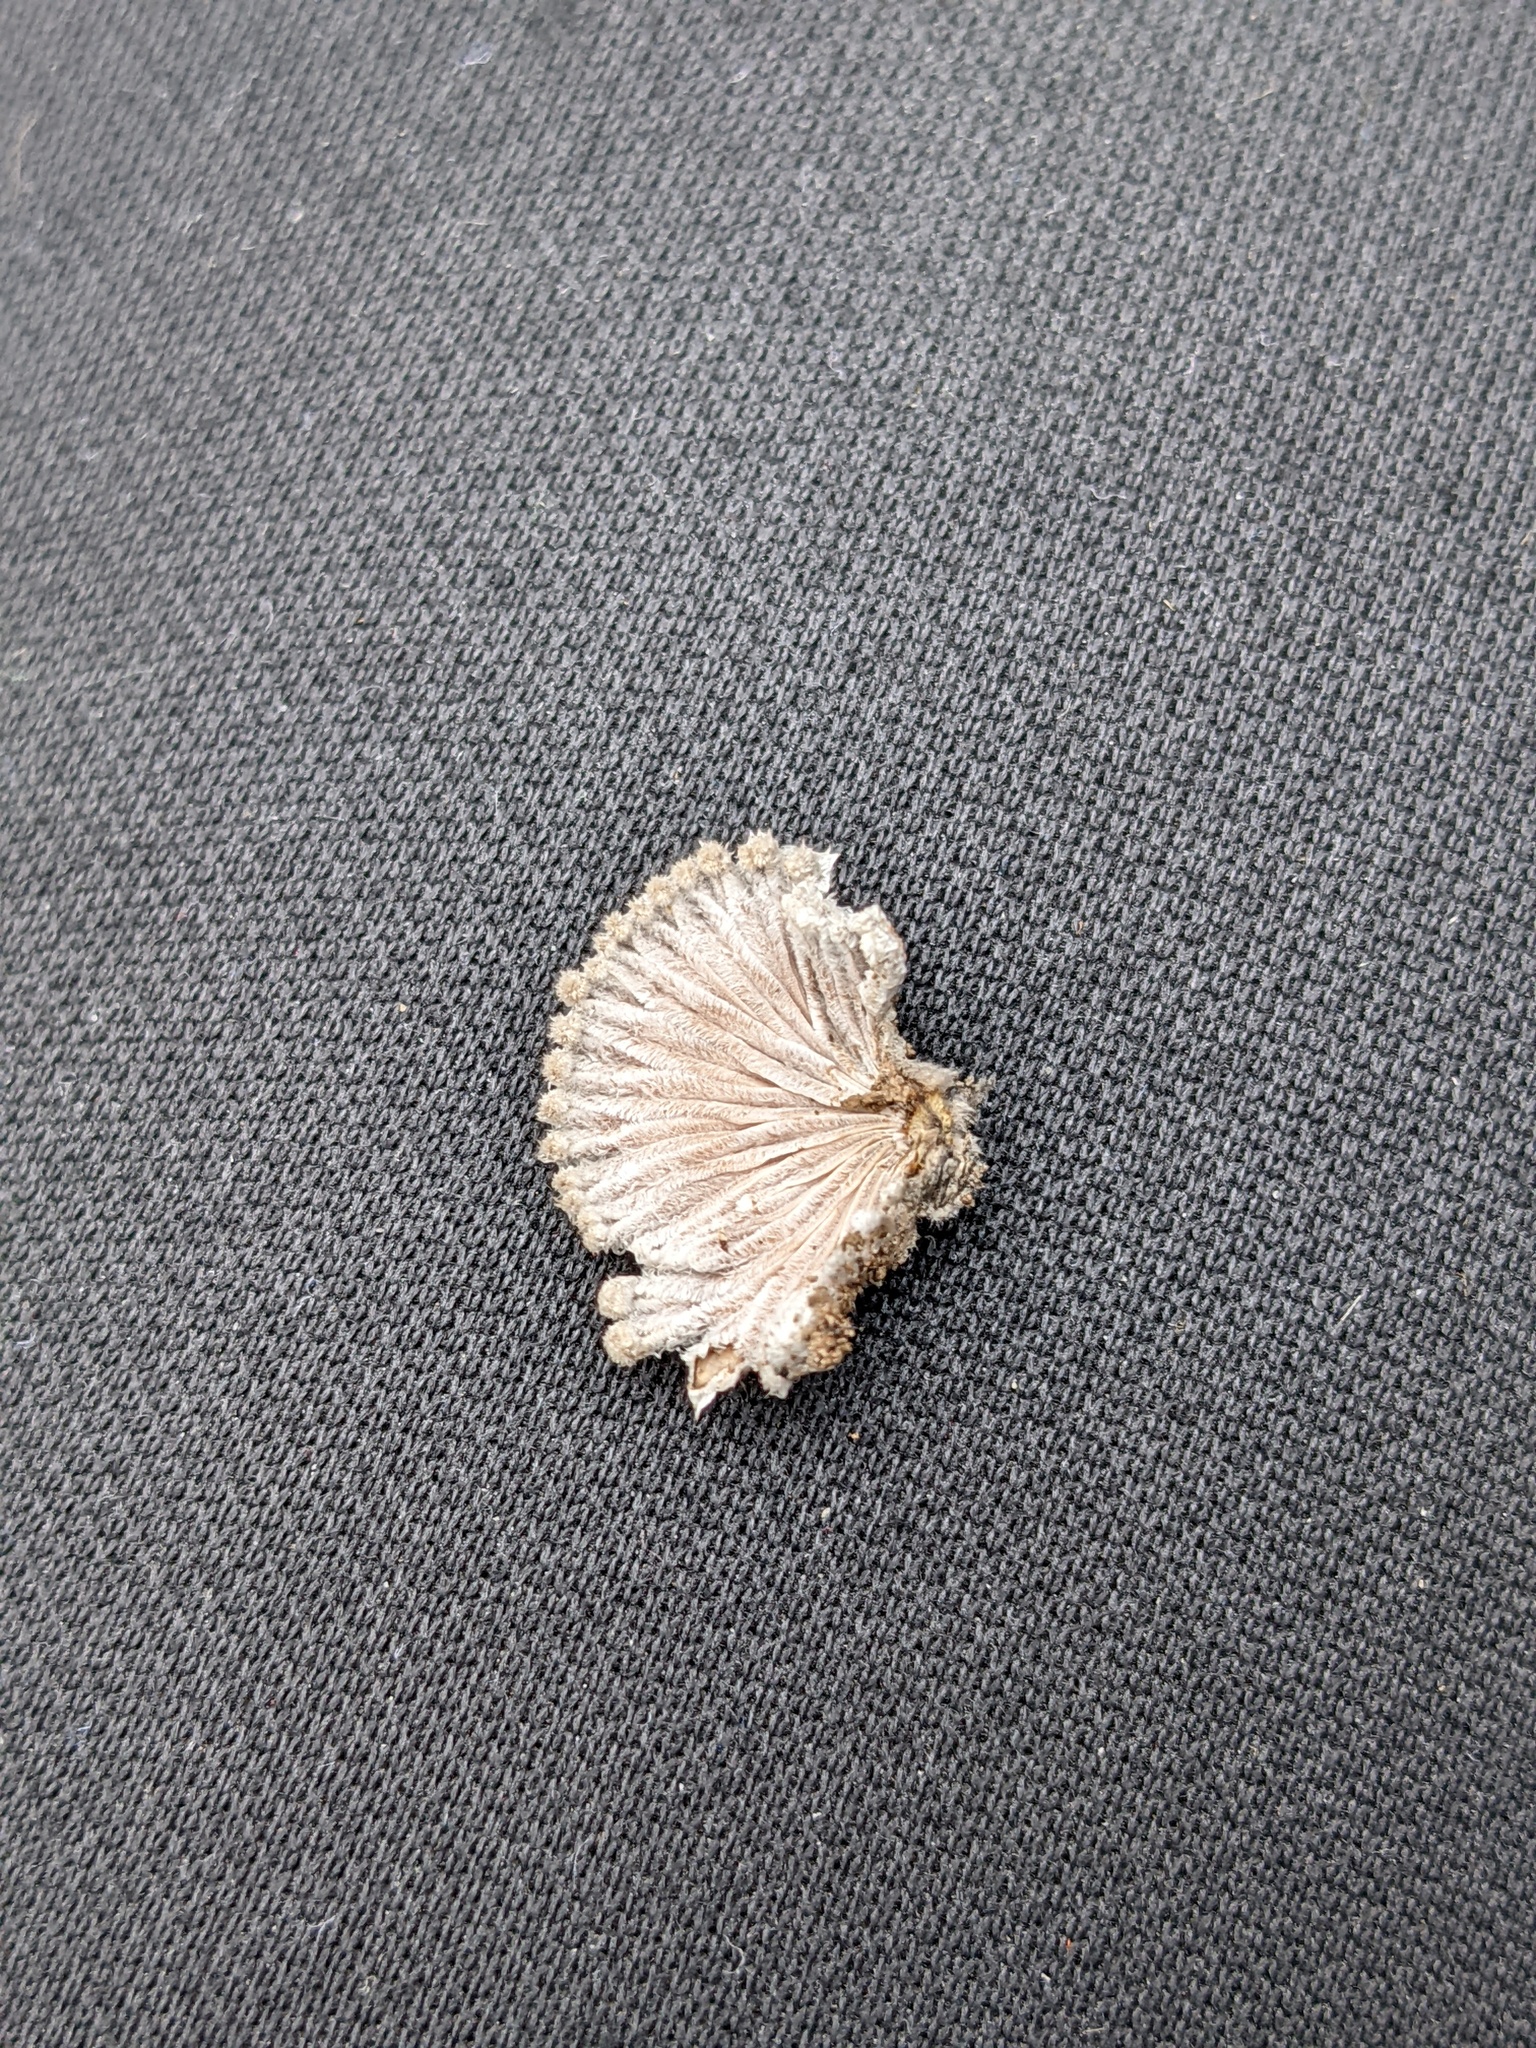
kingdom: Fungi
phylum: Basidiomycota
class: Agaricomycetes
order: Agaricales
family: Schizophyllaceae
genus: Schizophyllum
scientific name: Schizophyllum commune
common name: Common porecrust
